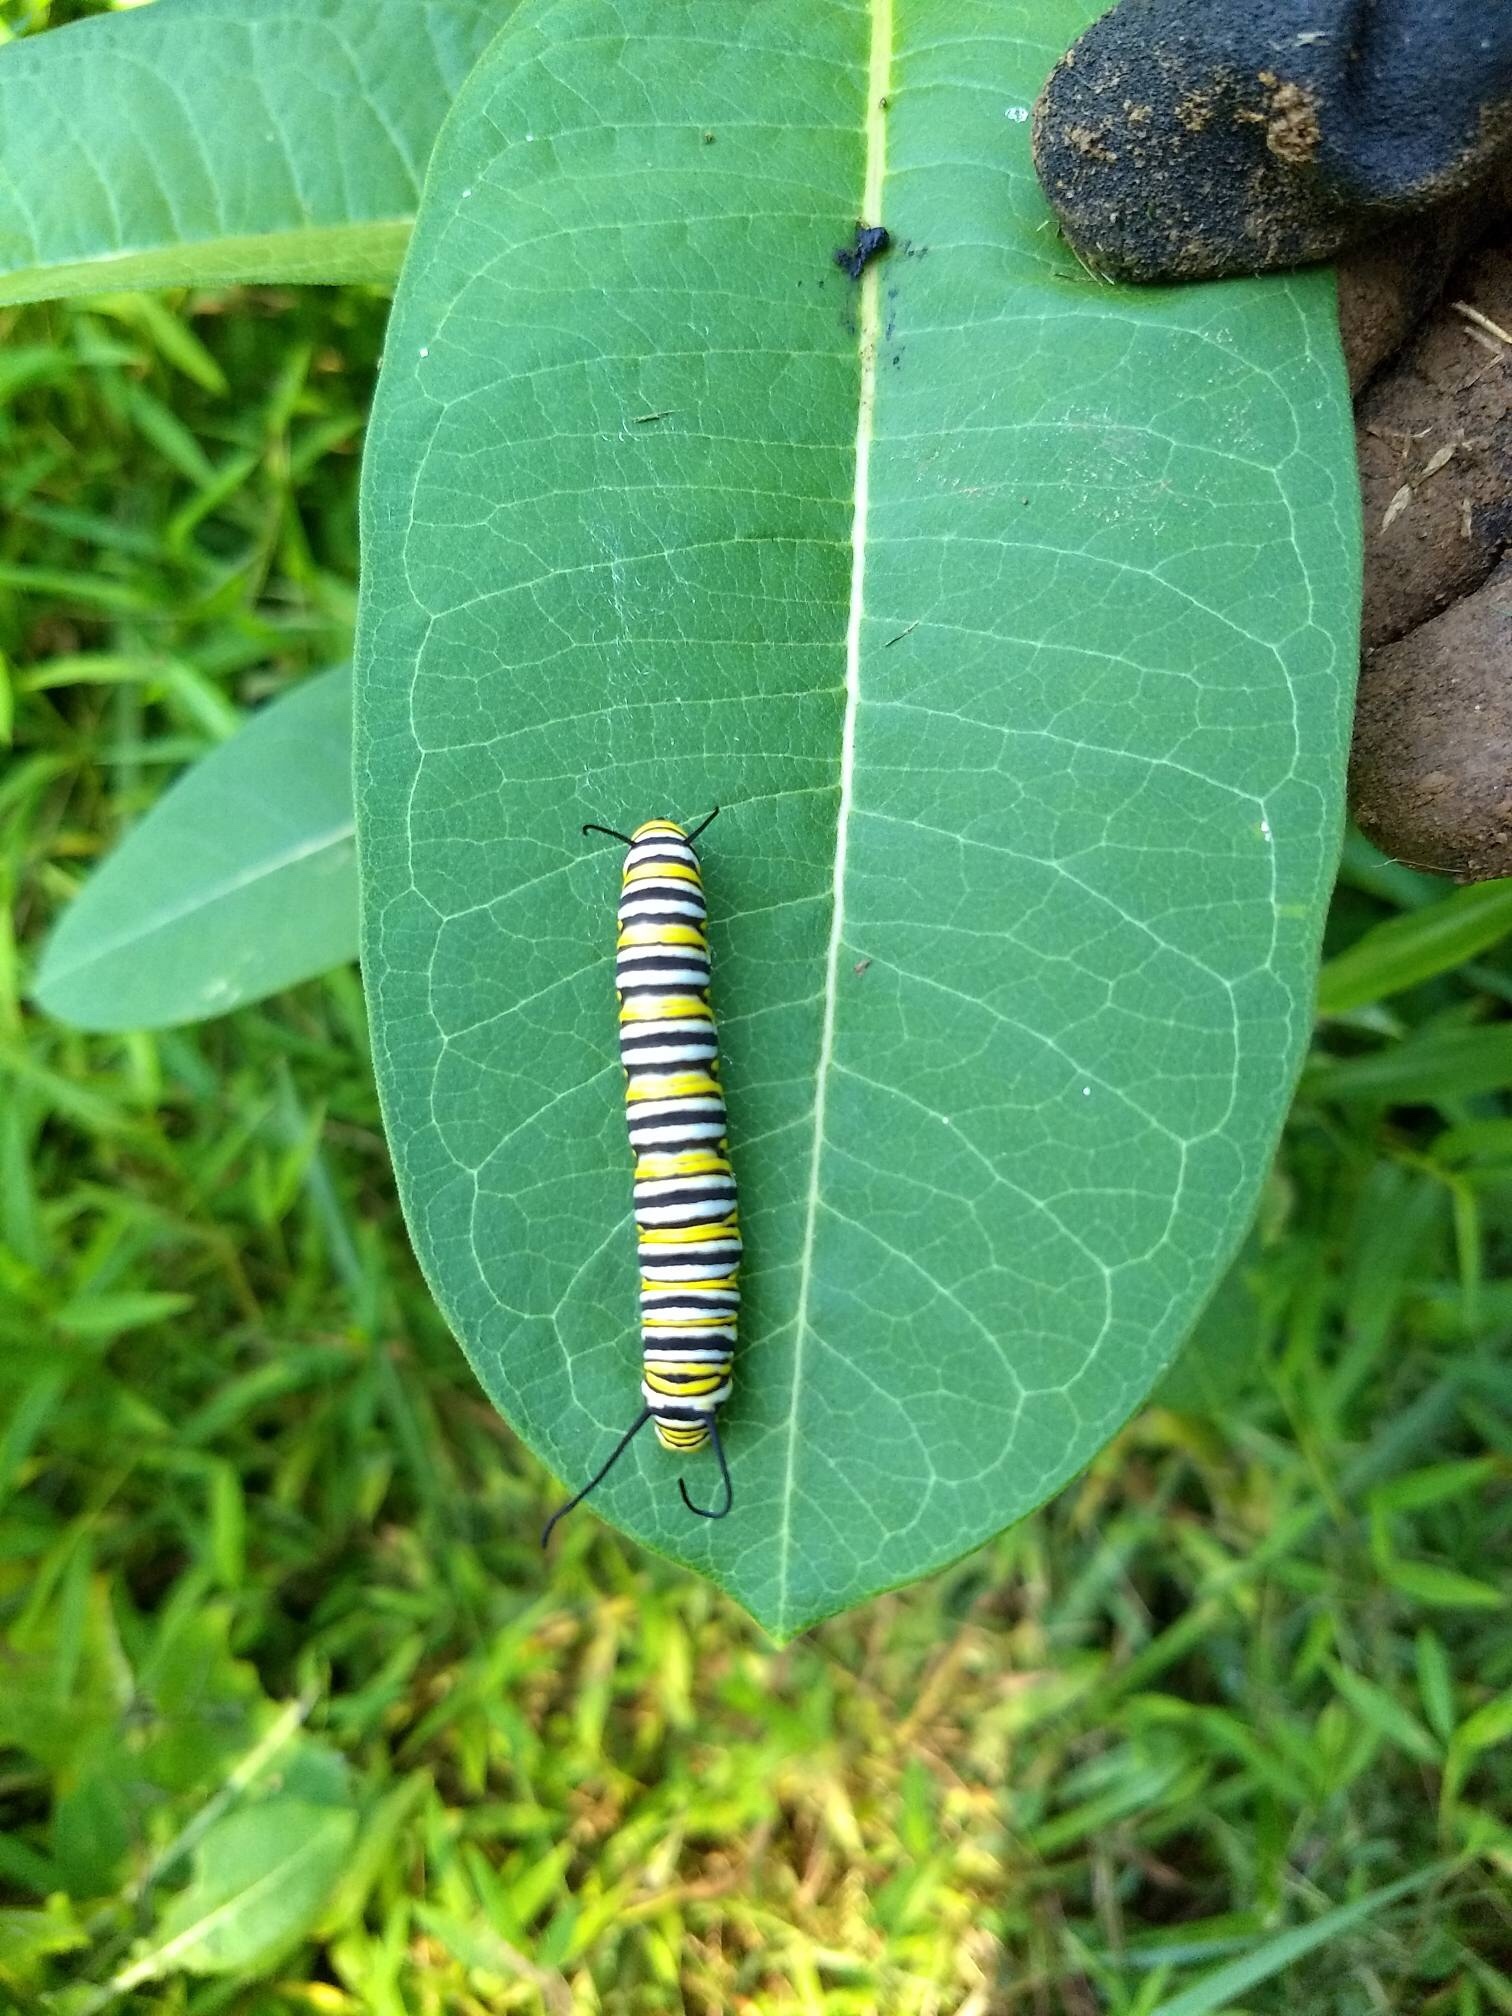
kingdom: Animalia
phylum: Arthropoda
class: Insecta
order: Lepidoptera
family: Nymphalidae
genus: Danaus
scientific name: Danaus plexippus
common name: Monarch
